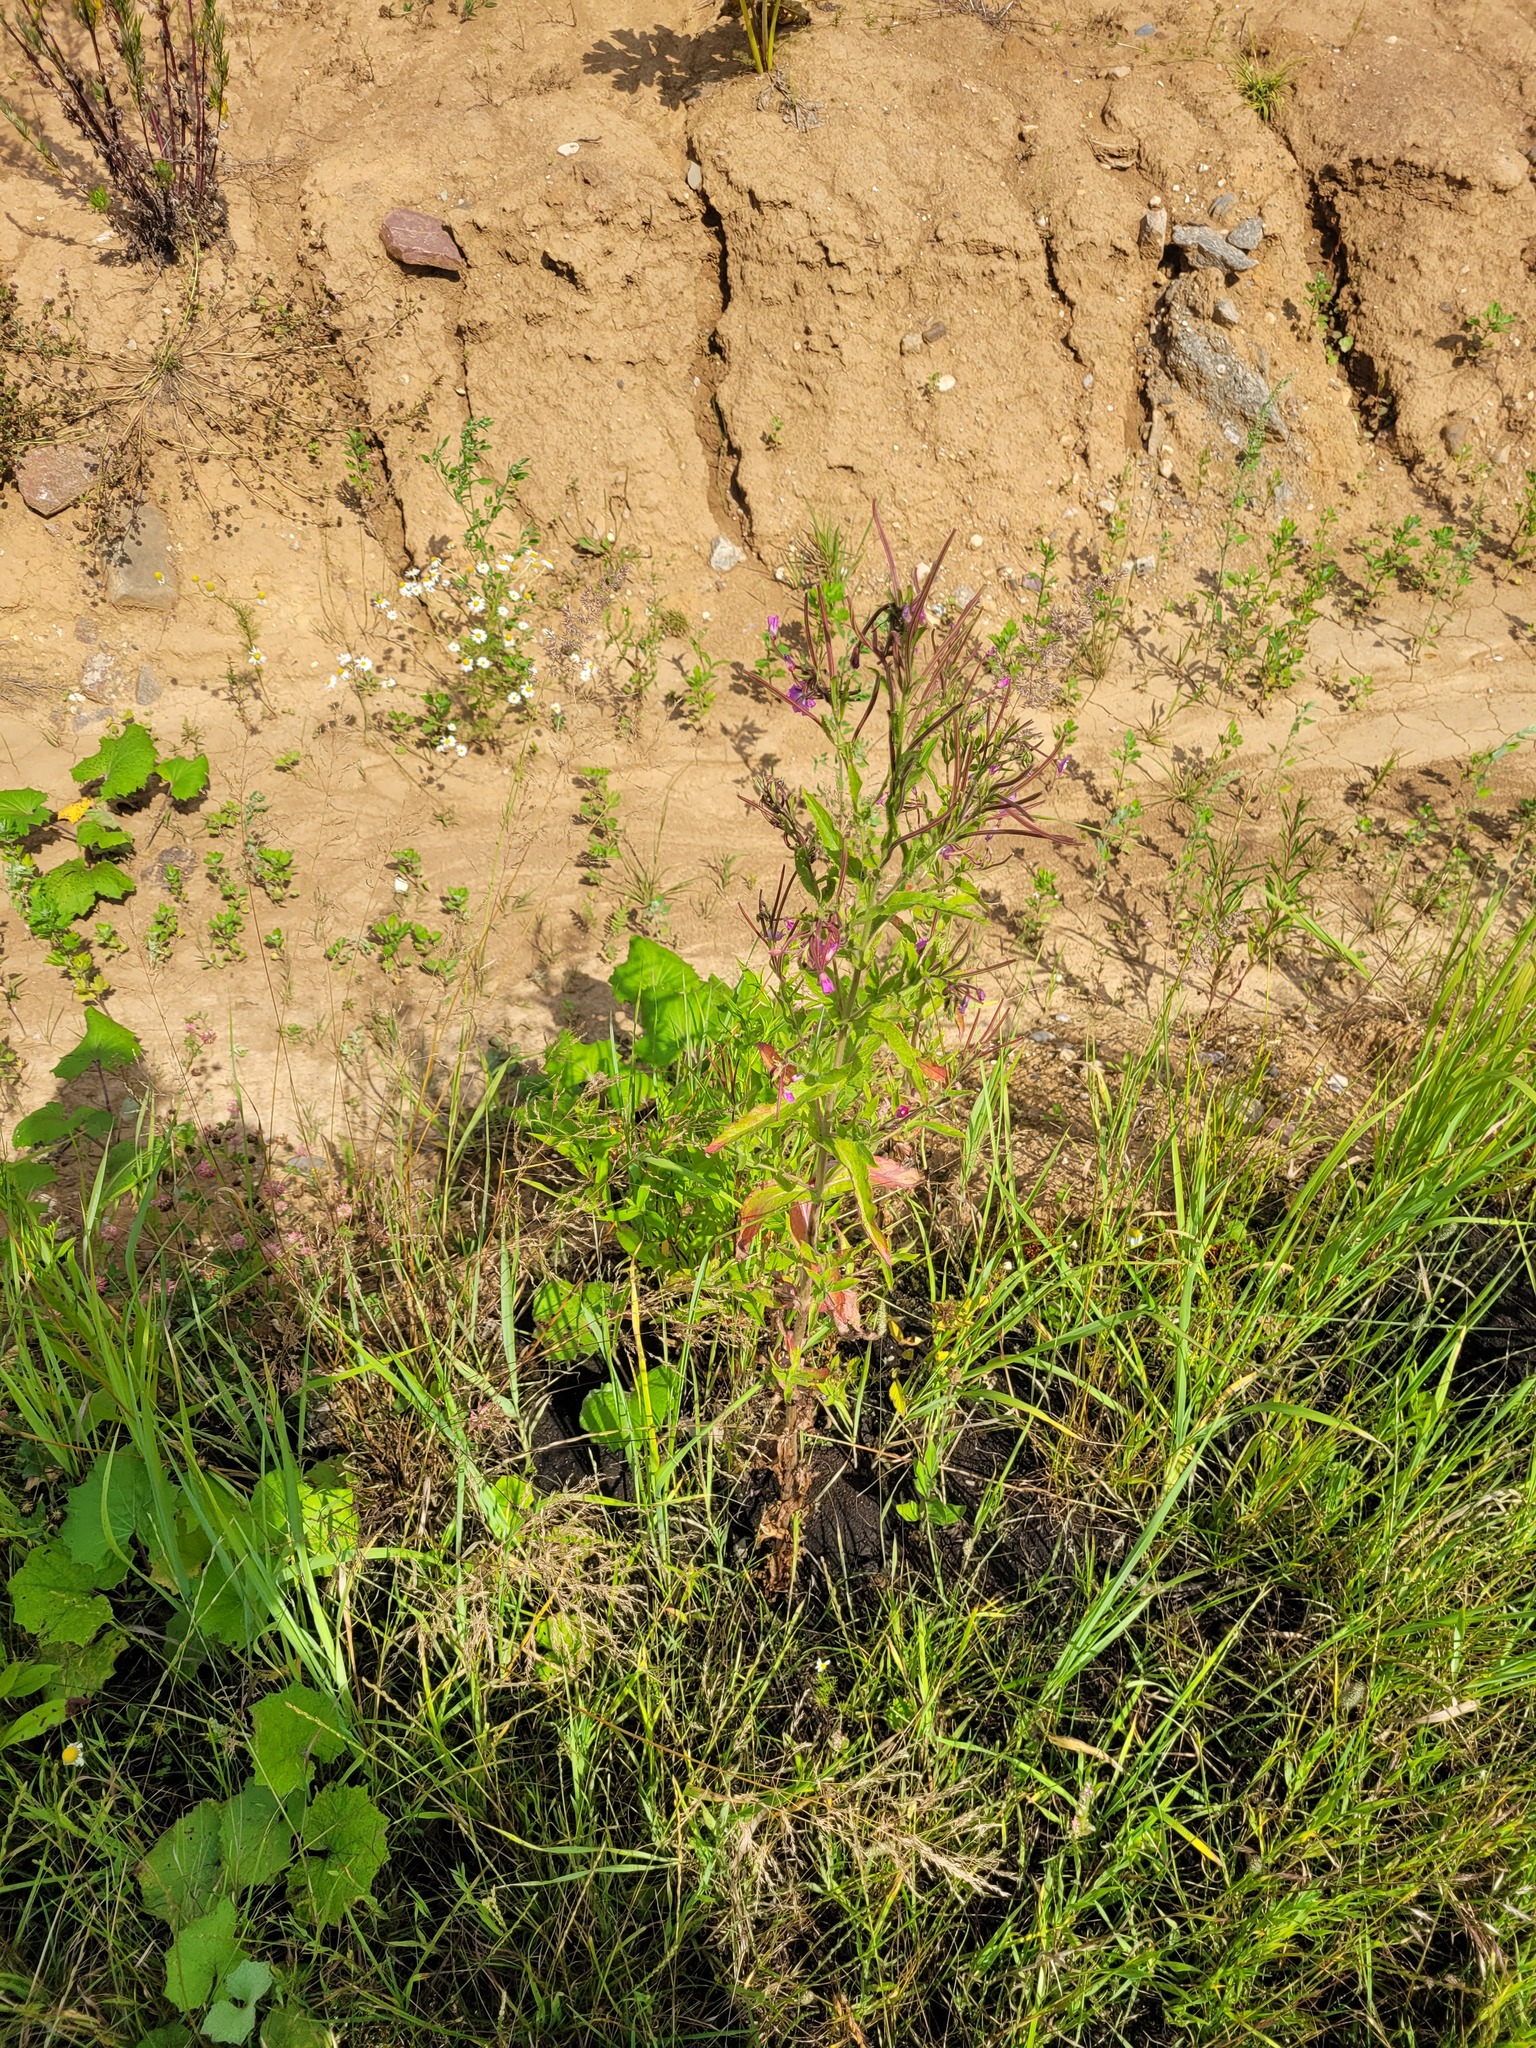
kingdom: Plantae
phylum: Tracheophyta
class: Magnoliopsida
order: Myrtales
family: Onagraceae
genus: Epilobium
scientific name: Epilobium hirsutum
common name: Great willowherb
